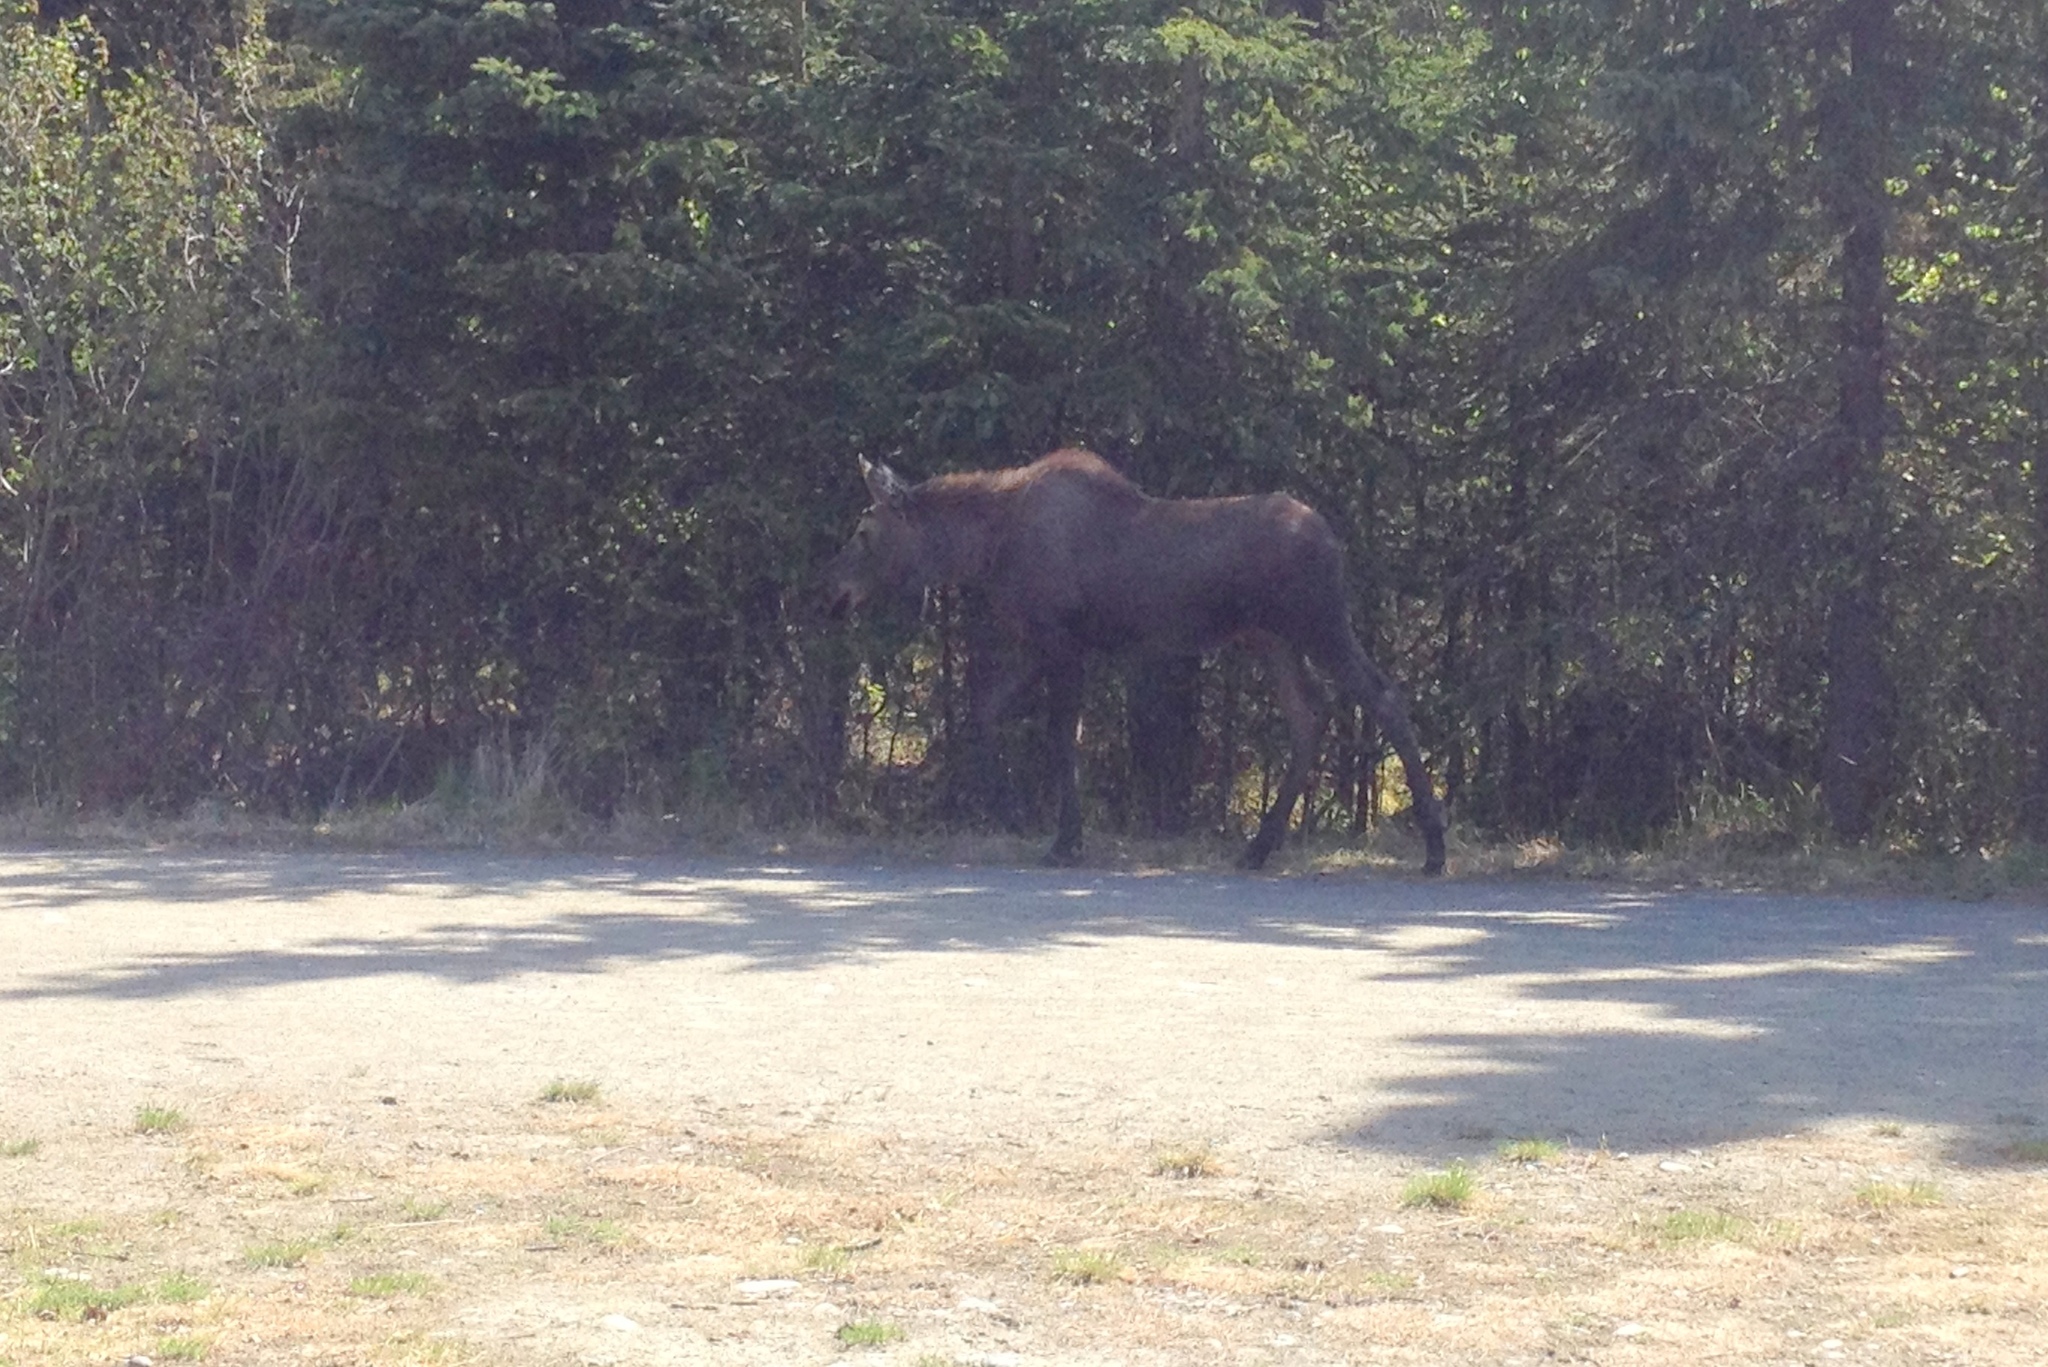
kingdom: Animalia
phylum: Chordata
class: Mammalia
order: Artiodactyla
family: Cervidae
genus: Alces
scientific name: Alces alces
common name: Moose
